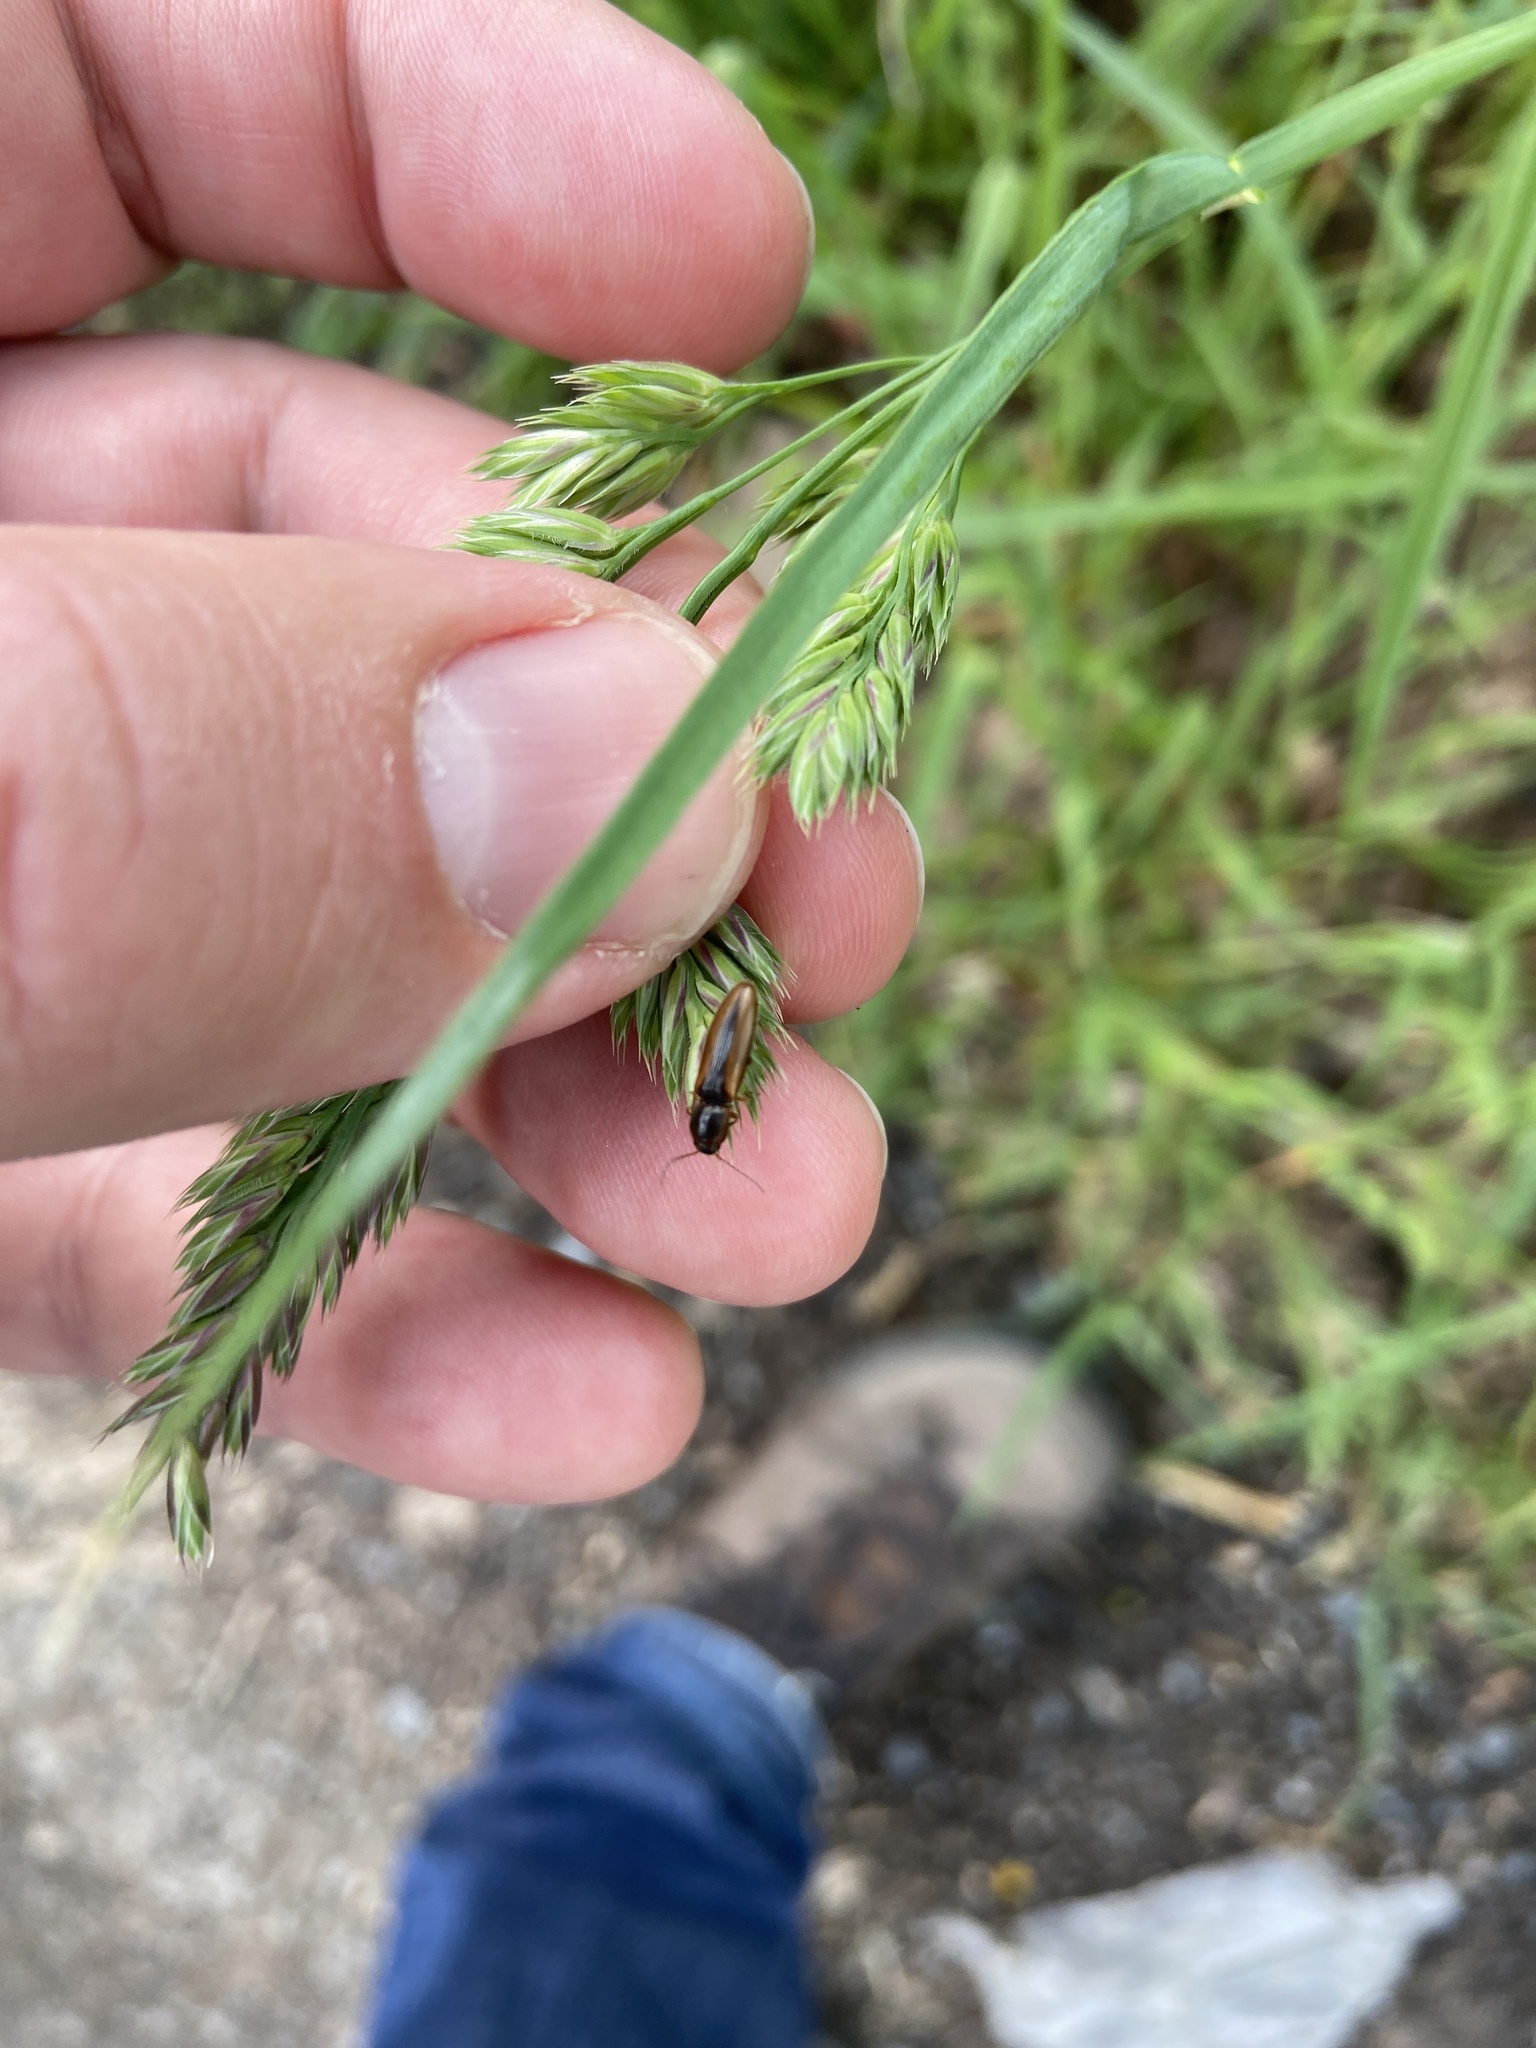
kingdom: Animalia
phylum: Arthropoda
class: Insecta
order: Coleoptera
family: Elateridae
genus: Dalopius
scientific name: Dalopius marginatus
